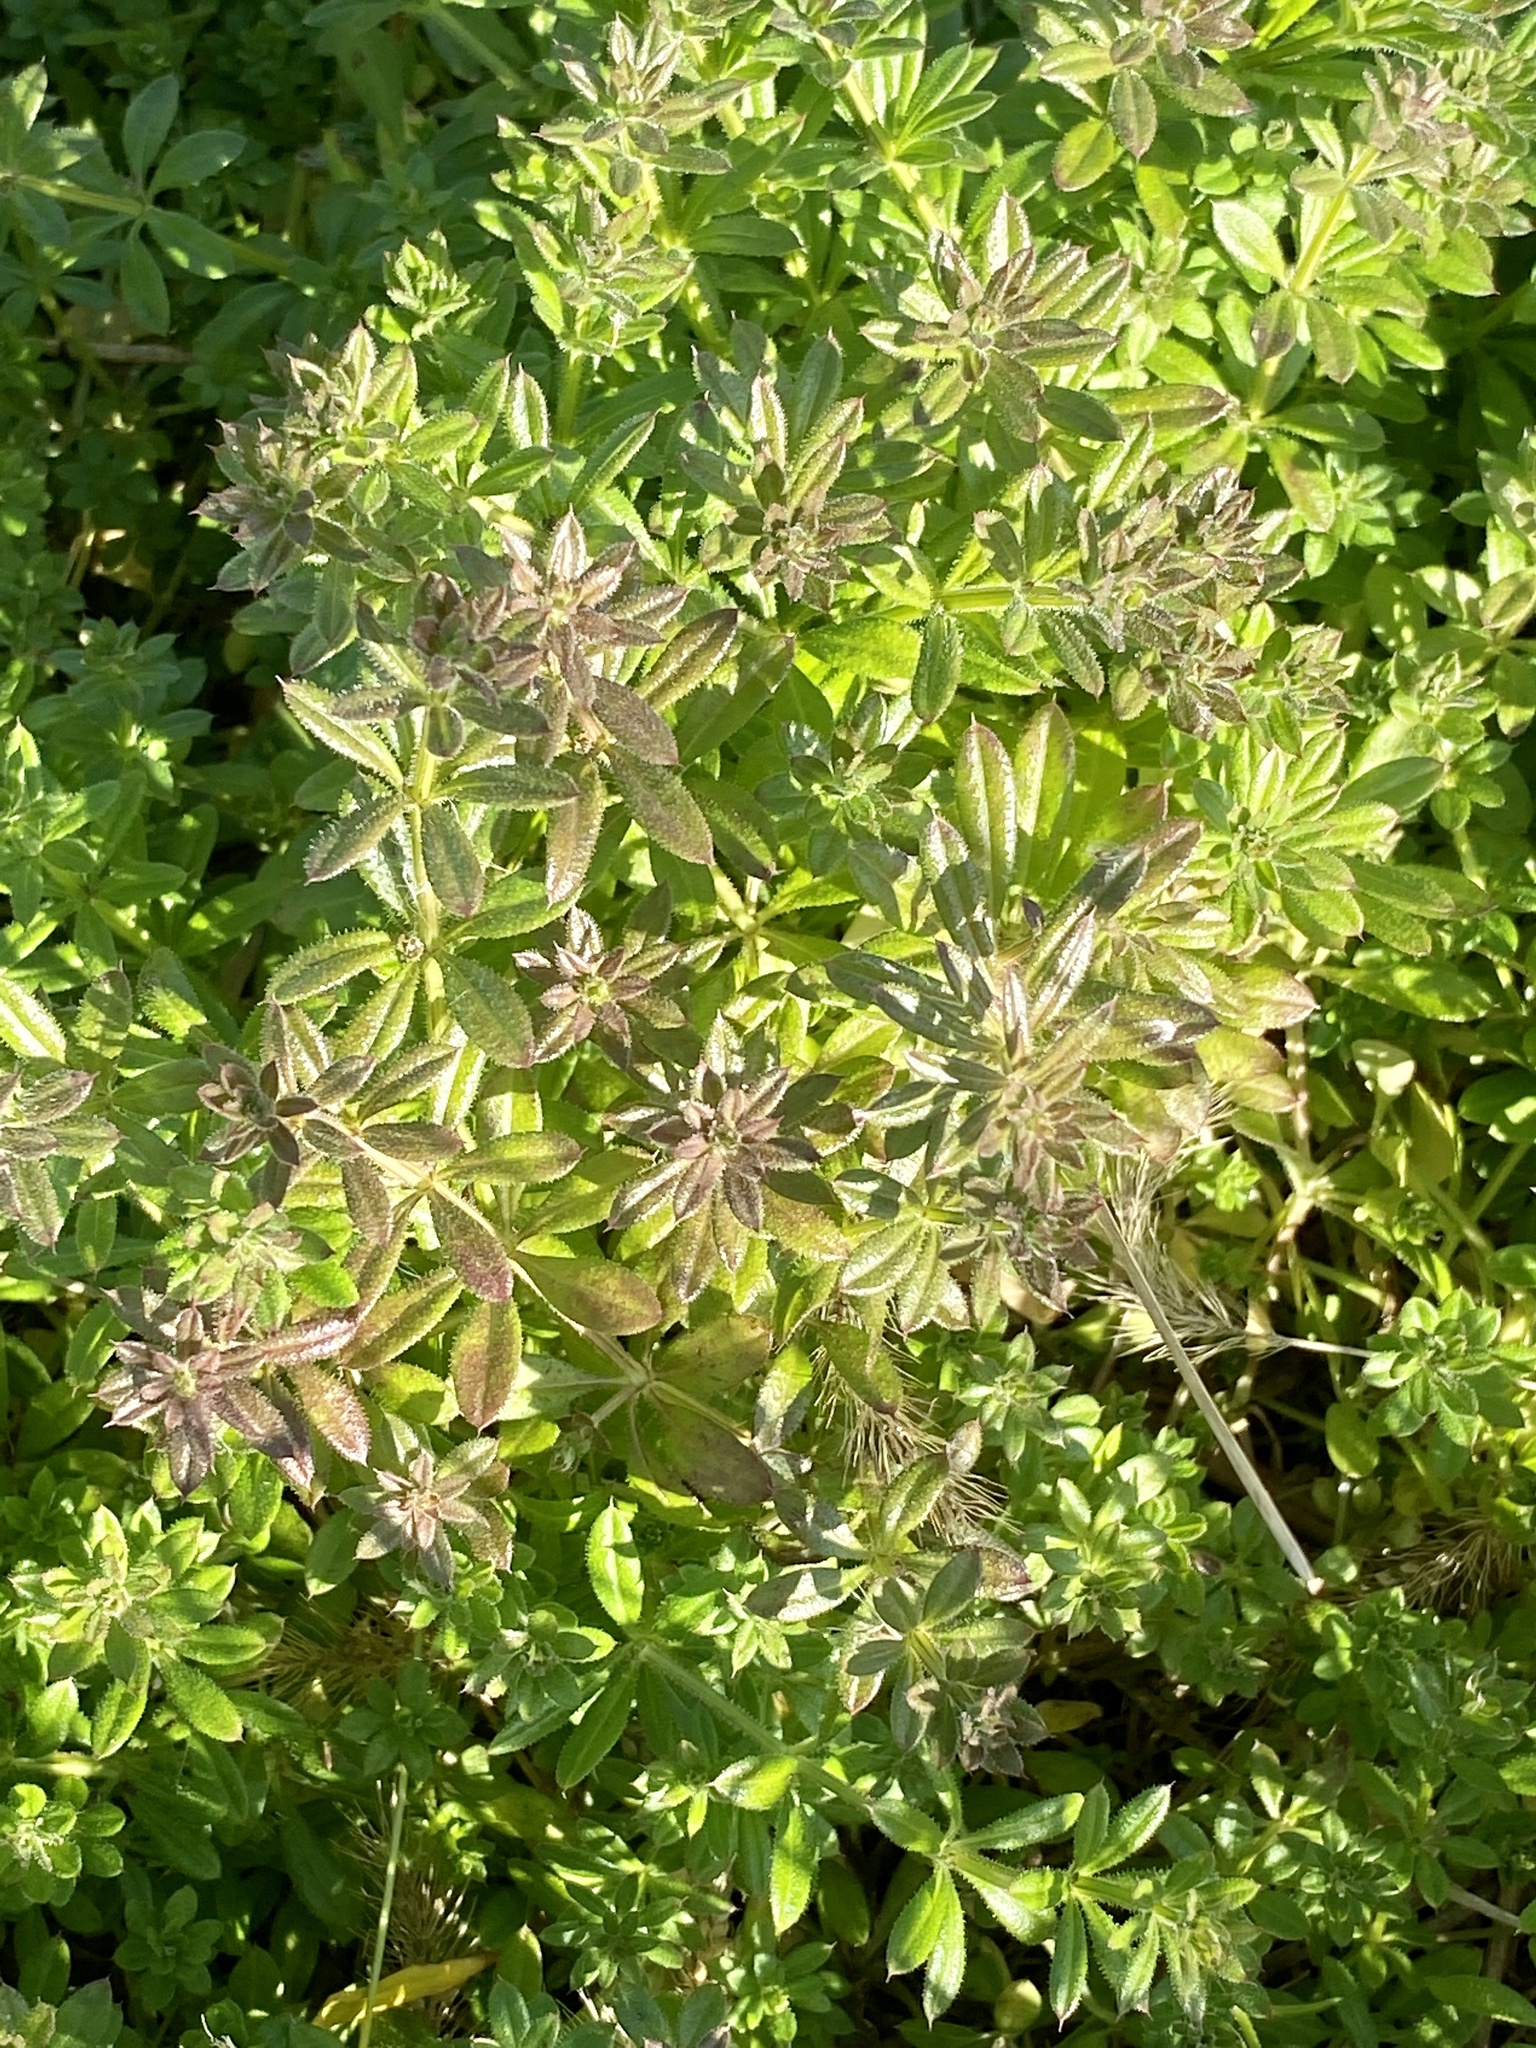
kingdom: Plantae
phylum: Tracheophyta
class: Magnoliopsida
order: Gentianales
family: Rubiaceae
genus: Galium
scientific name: Galium aparine
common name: Cleavers
